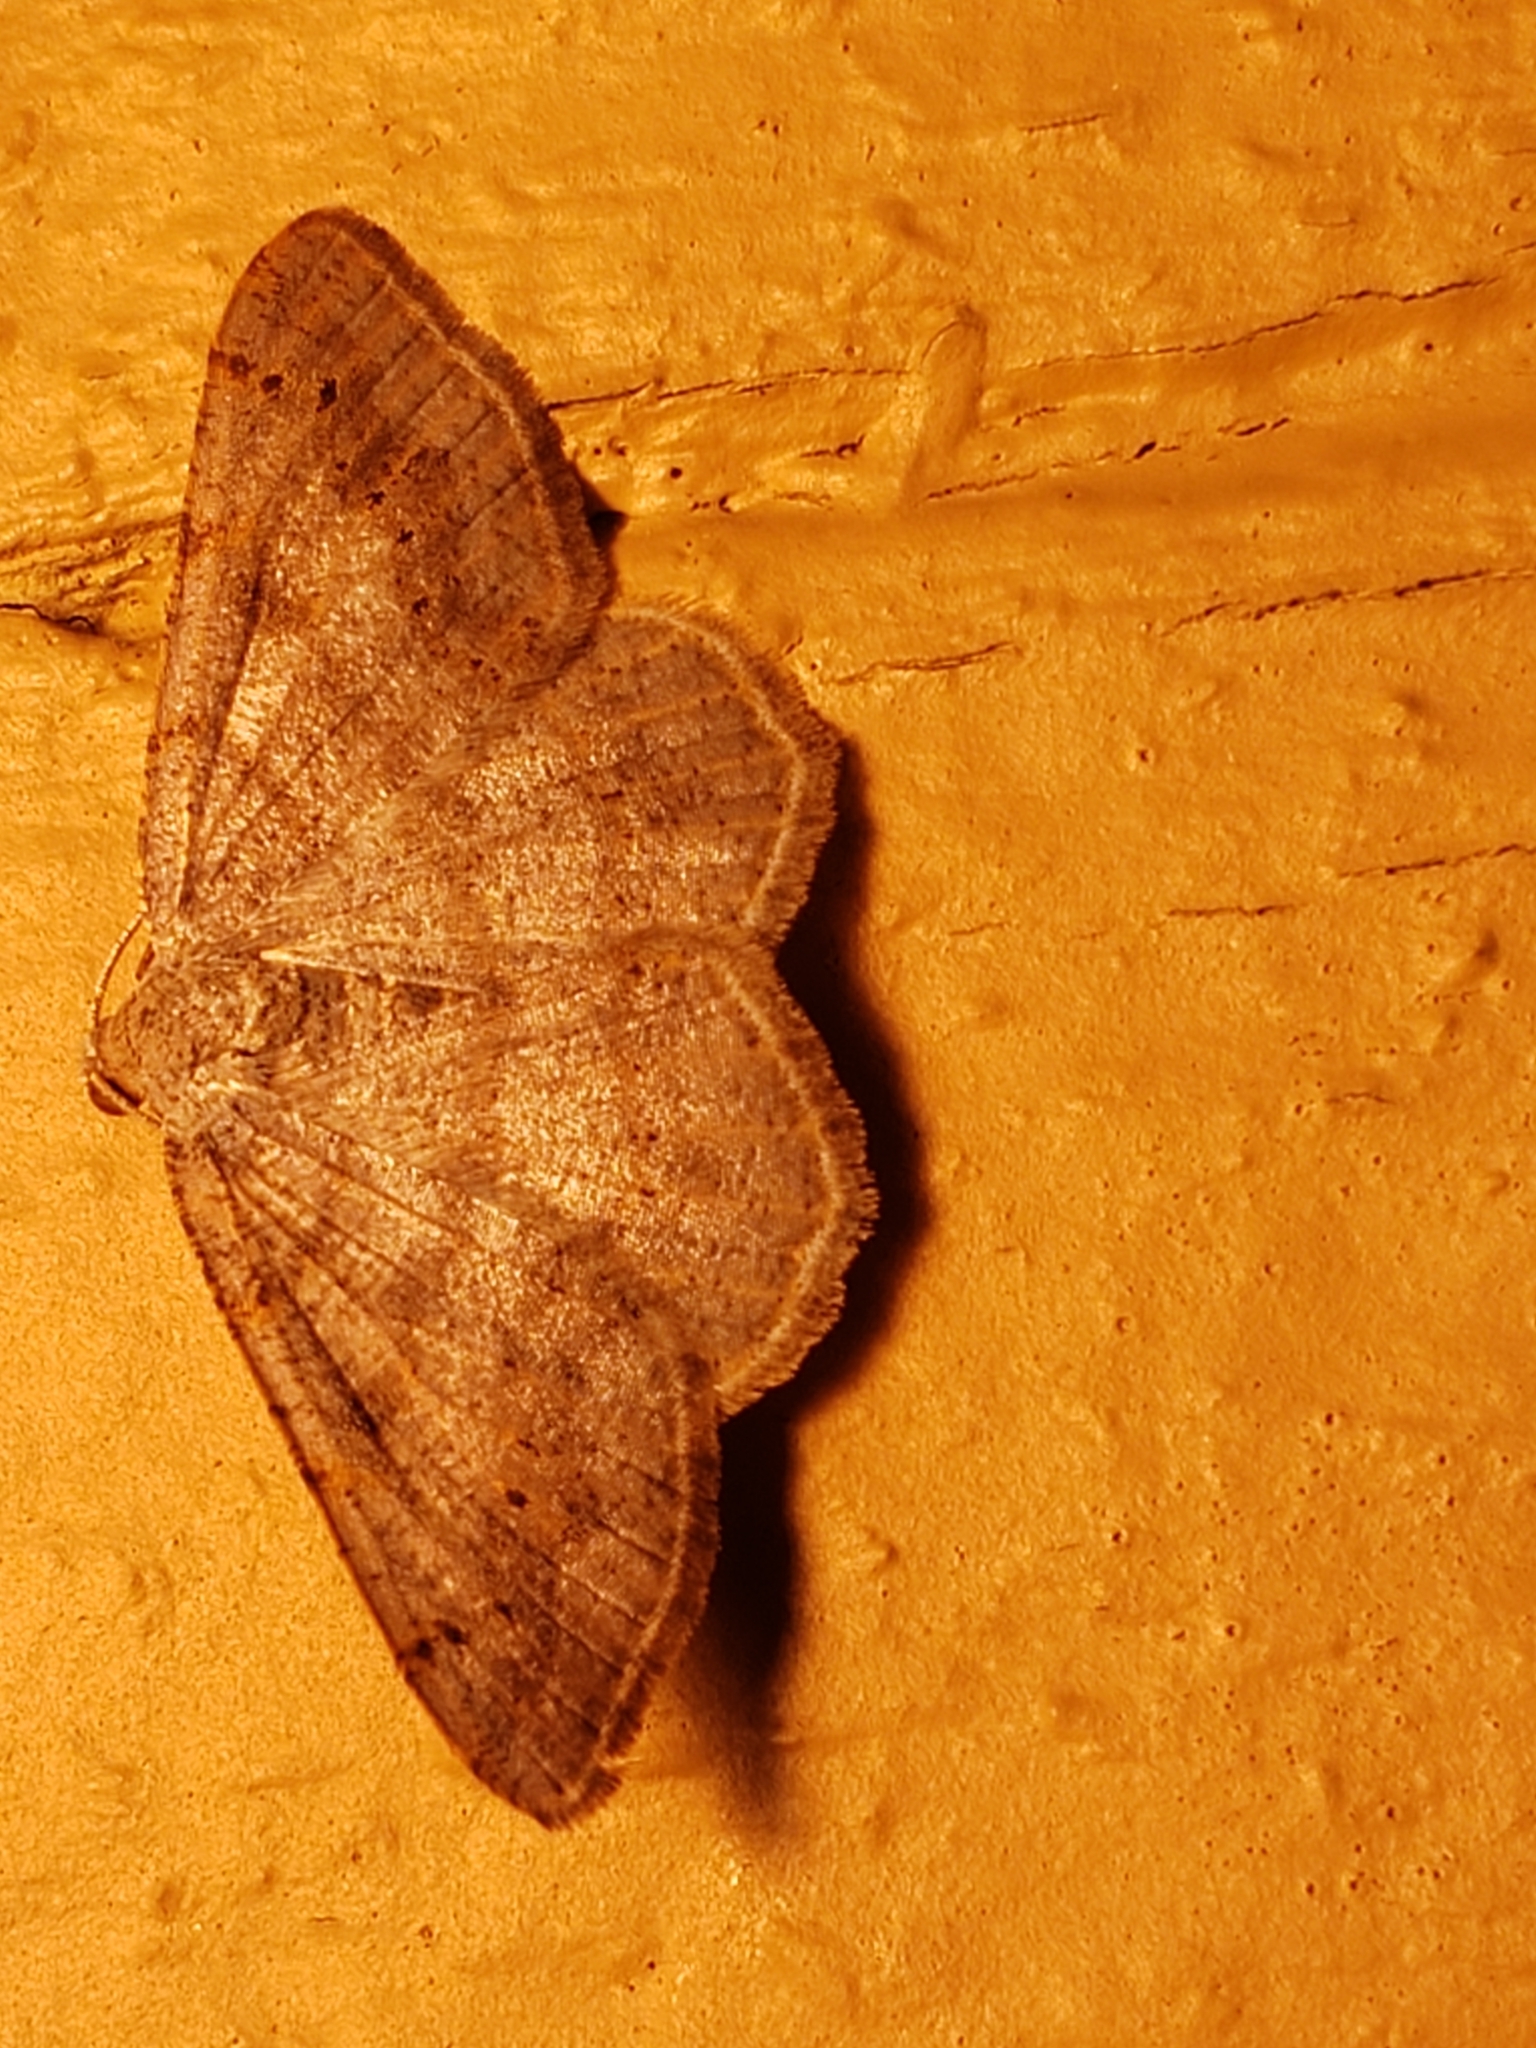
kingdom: Animalia
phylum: Arthropoda
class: Insecta
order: Lepidoptera
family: Geometridae
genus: Digrammia
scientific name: Digrammia ocellinata
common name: Faint-spotted angle
